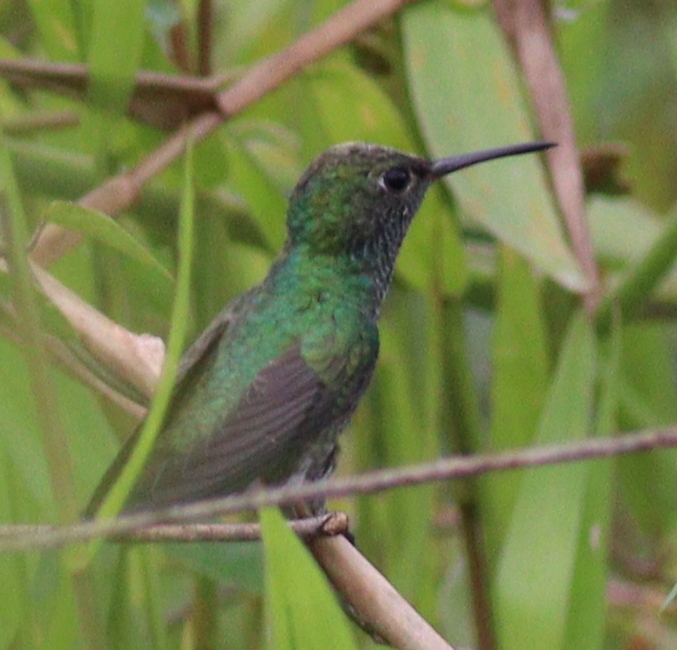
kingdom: Animalia
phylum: Chordata
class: Aves
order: Apodiformes
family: Trochilidae
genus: Chionomesa
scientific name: Chionomesa fimbriata
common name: Glittering-throated emerald
